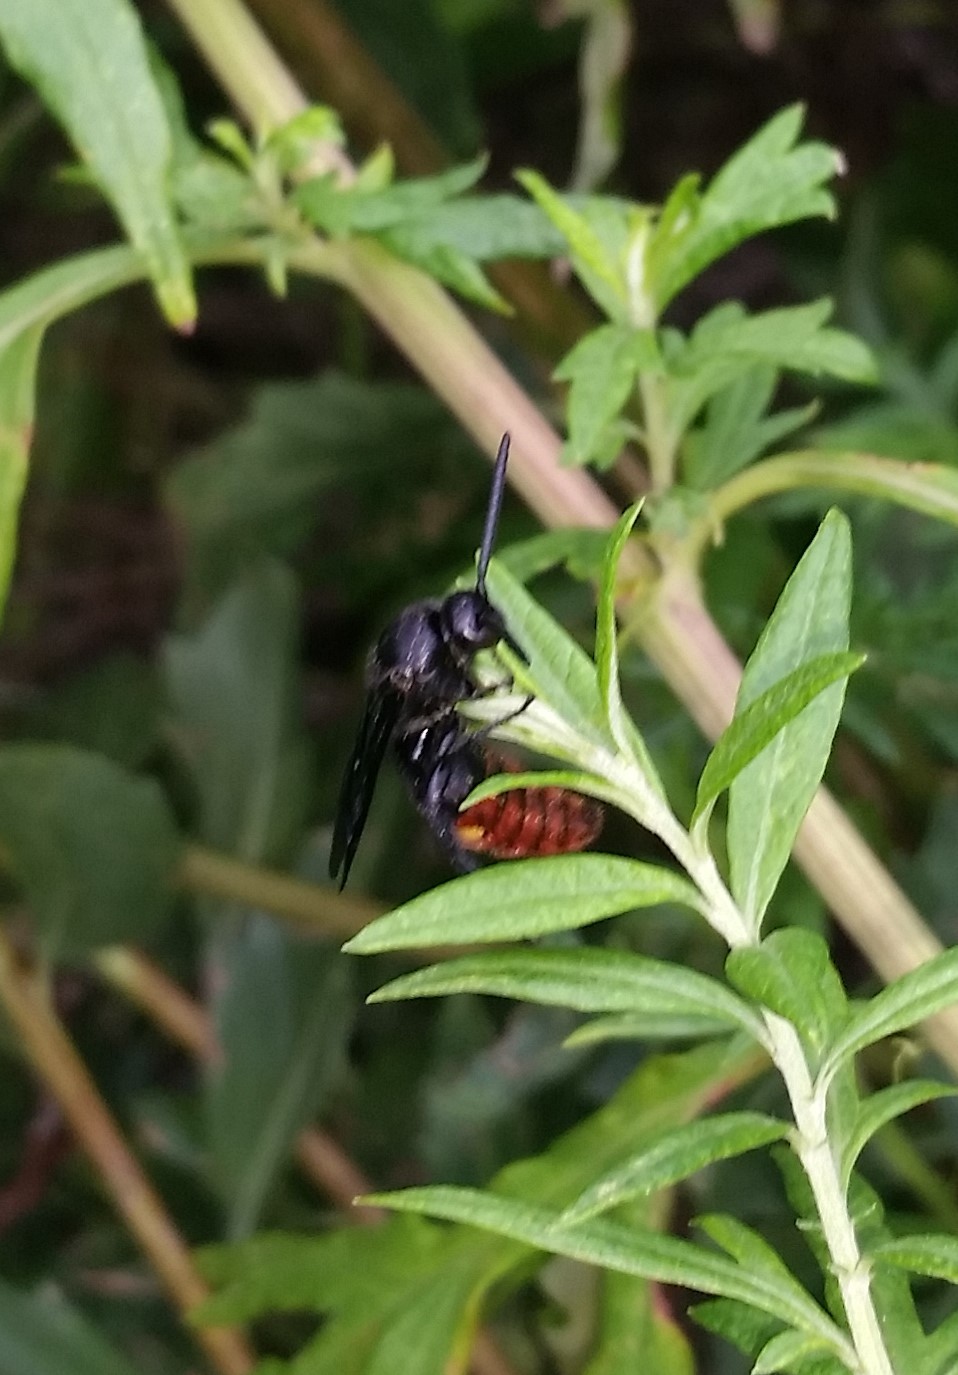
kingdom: Animalia
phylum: Arthropoda
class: Insecta
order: Hymenoptera
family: Scoliidae
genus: Scolia
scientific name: Scolia dubia
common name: Blue-winged scoliid wasp
